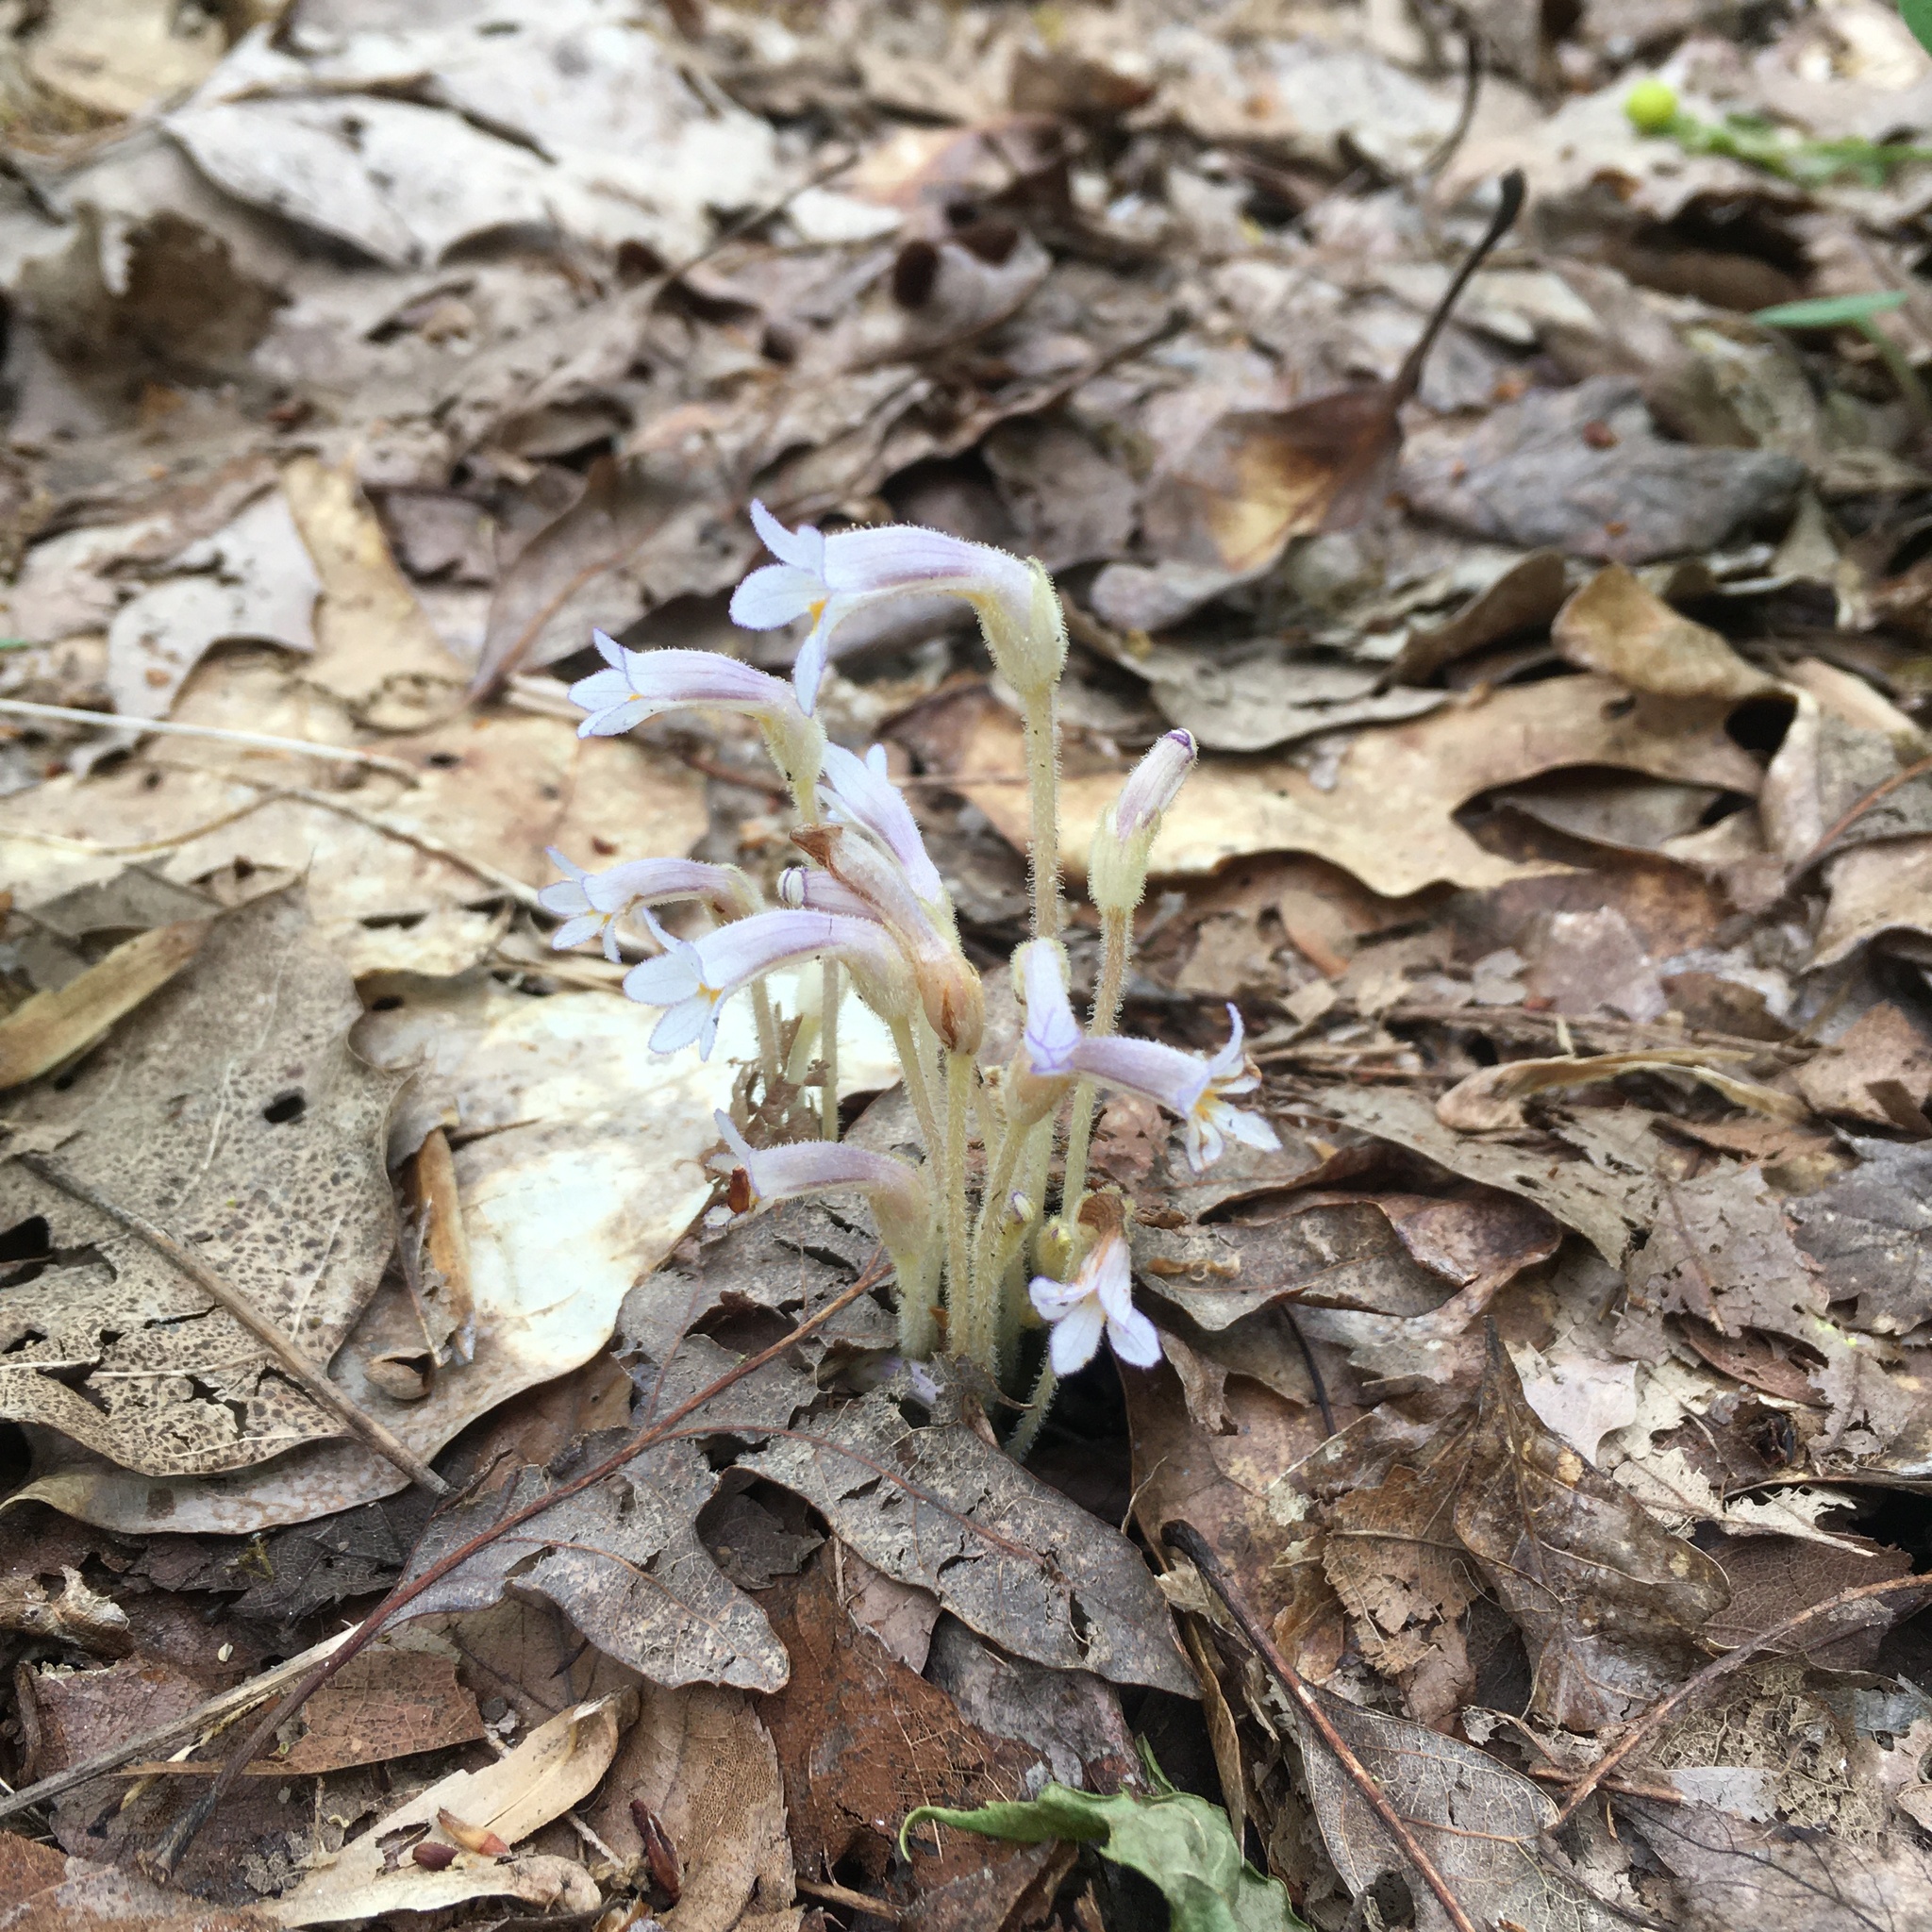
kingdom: Plantae
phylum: Tracheophyta
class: Magnoliopsida
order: Lamiales
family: Orobanchaceae
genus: Aphyllon
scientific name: Aphyllon uniflorum
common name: One-flowered broomrape
